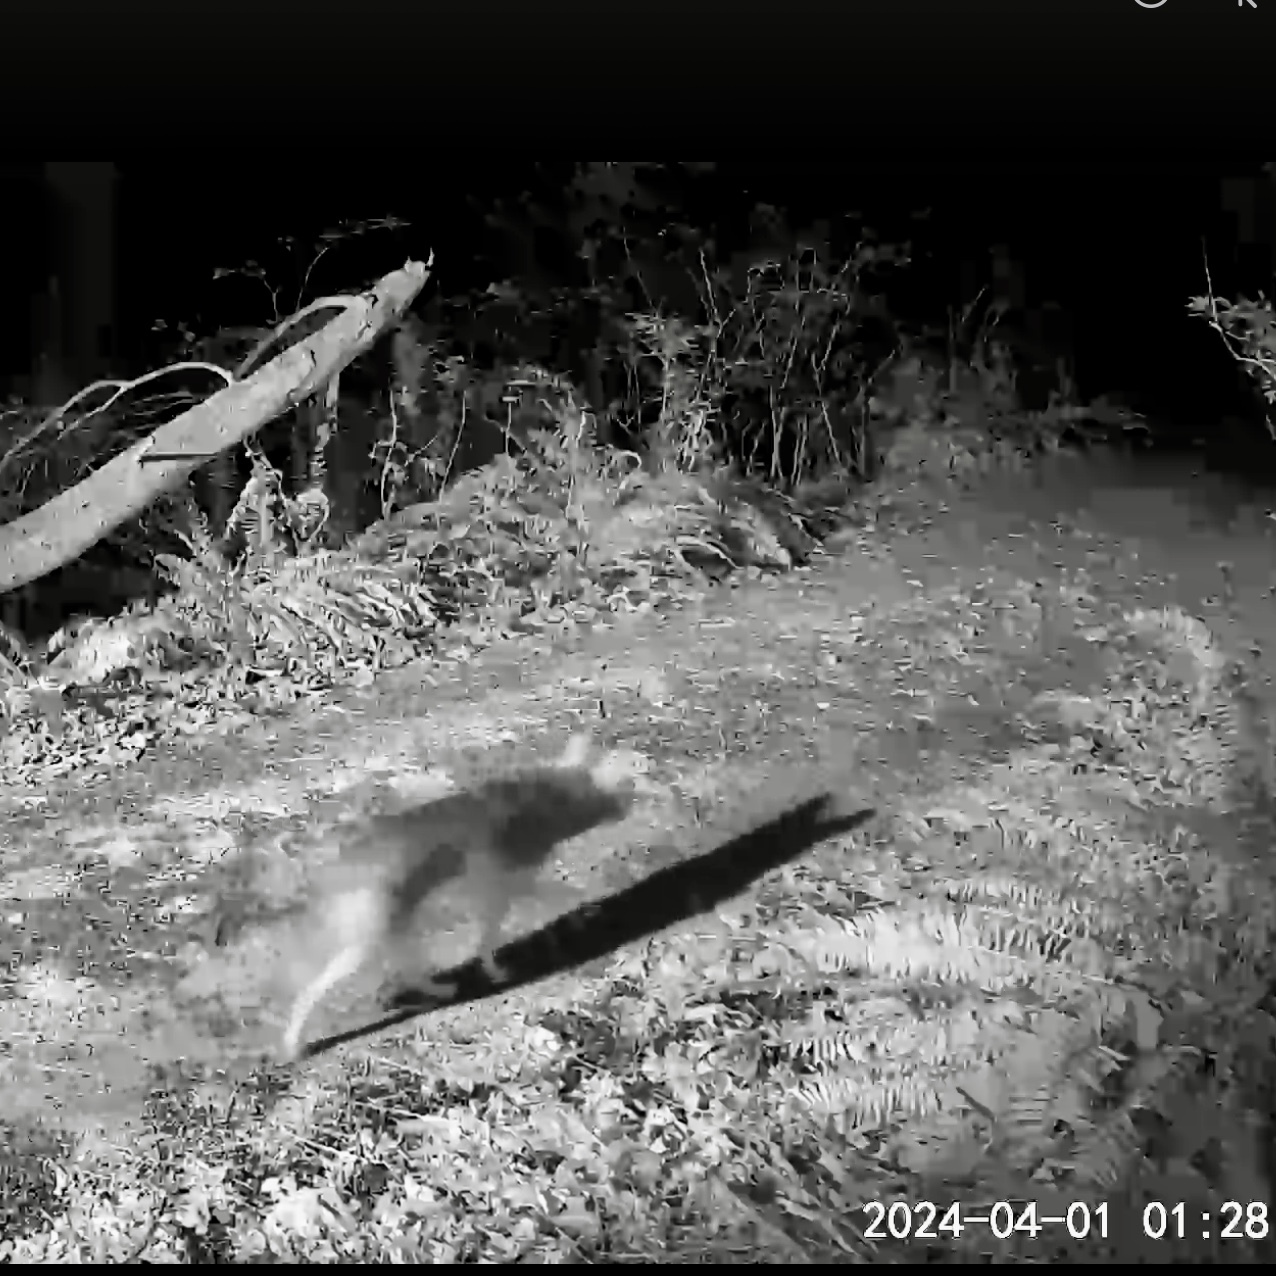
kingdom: Animalia
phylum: Chordata
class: Mammalia
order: Carnivora
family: Canidae
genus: Canis
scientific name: Canis latrans
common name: Coyote
